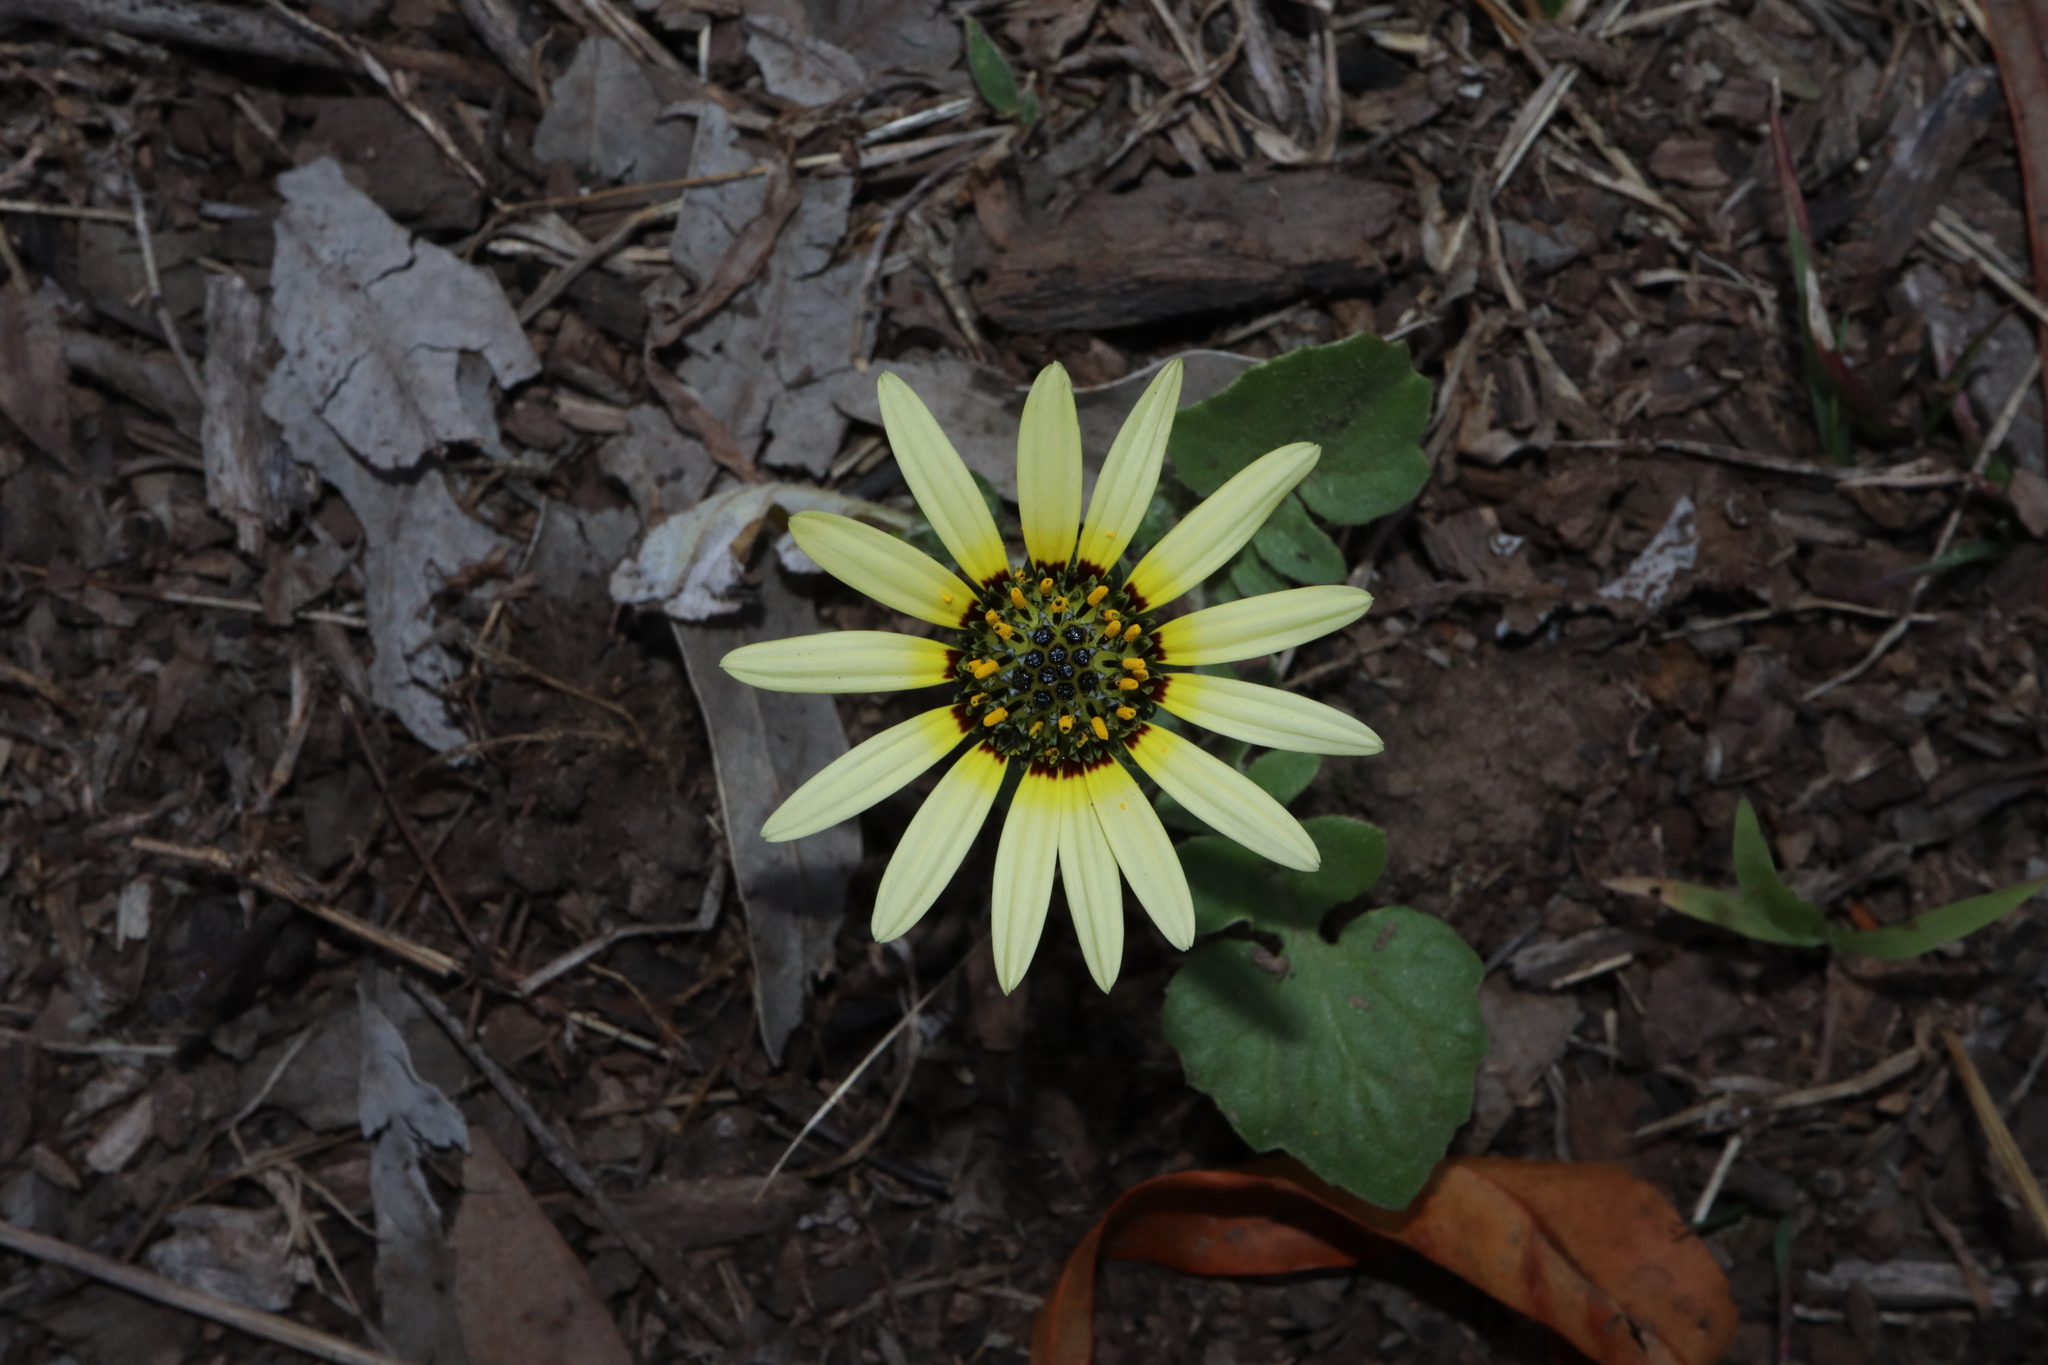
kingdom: Plantae
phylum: Tracheophyta
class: Magnoliopsida
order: Asterales
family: Asteraceae
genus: Arctotheca
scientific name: Arctotheca calendula
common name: Capeweed
